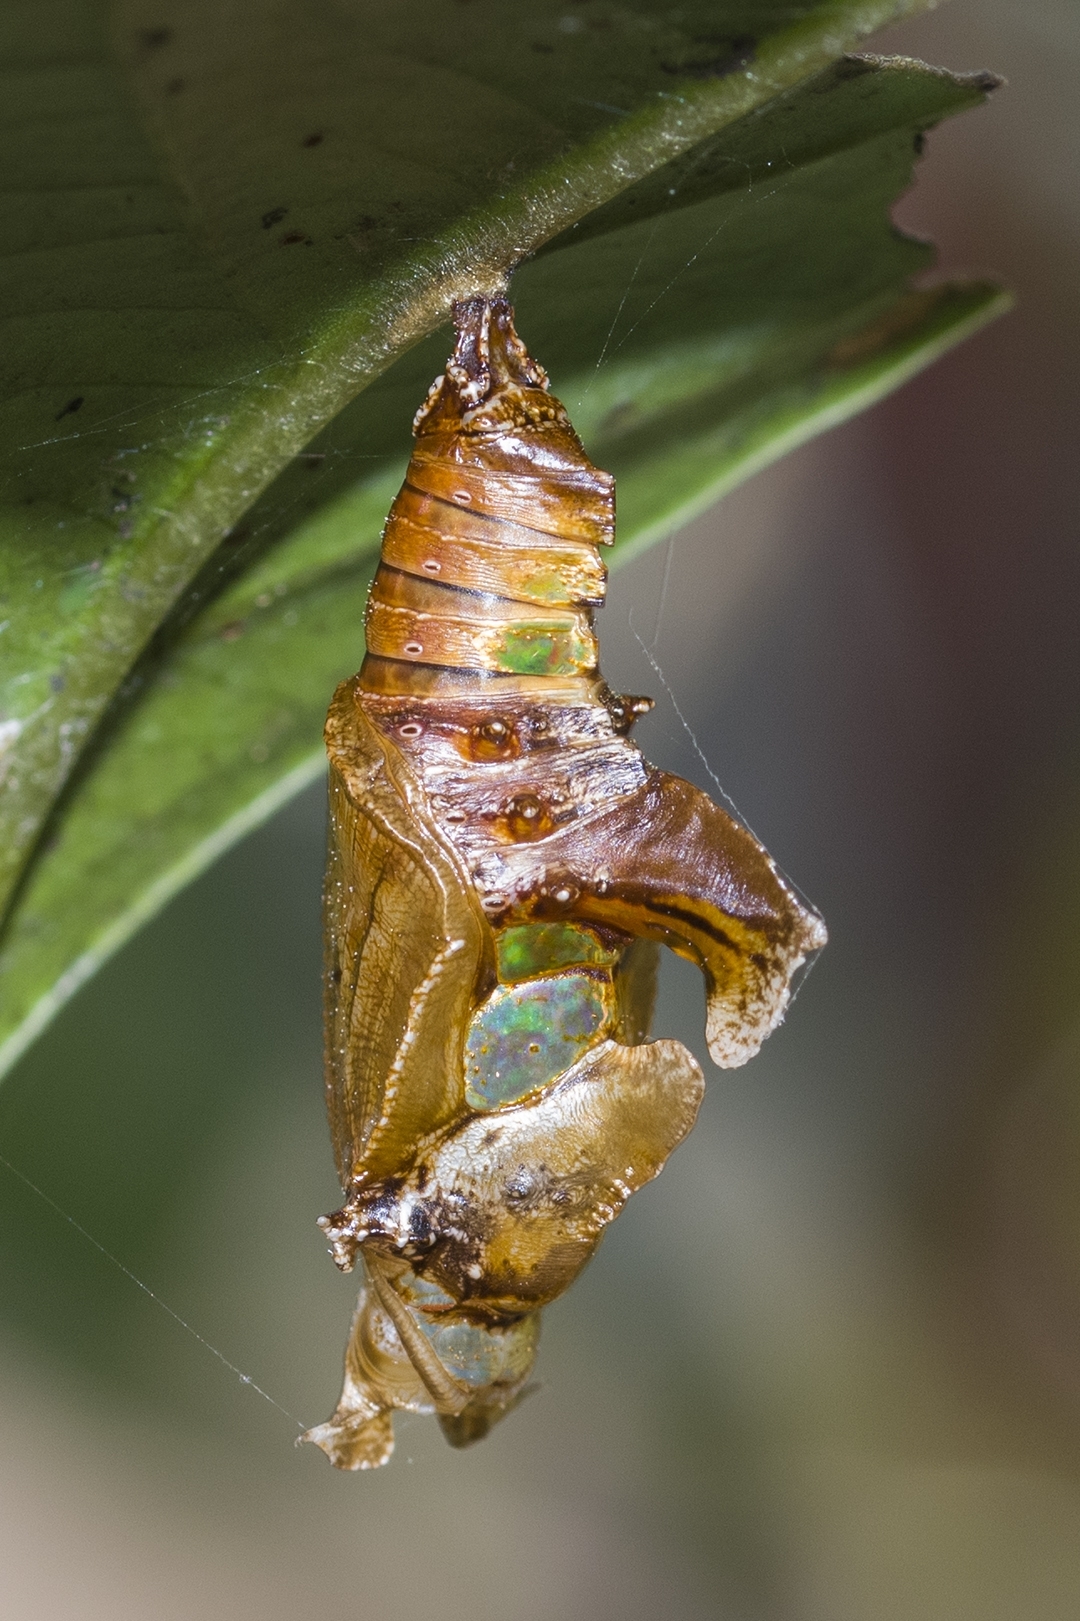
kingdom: Animalia
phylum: Arthropoda
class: Insecta
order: Lepidoptera
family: Nymphalidae
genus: Parathyma
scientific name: Parathyma nefte
